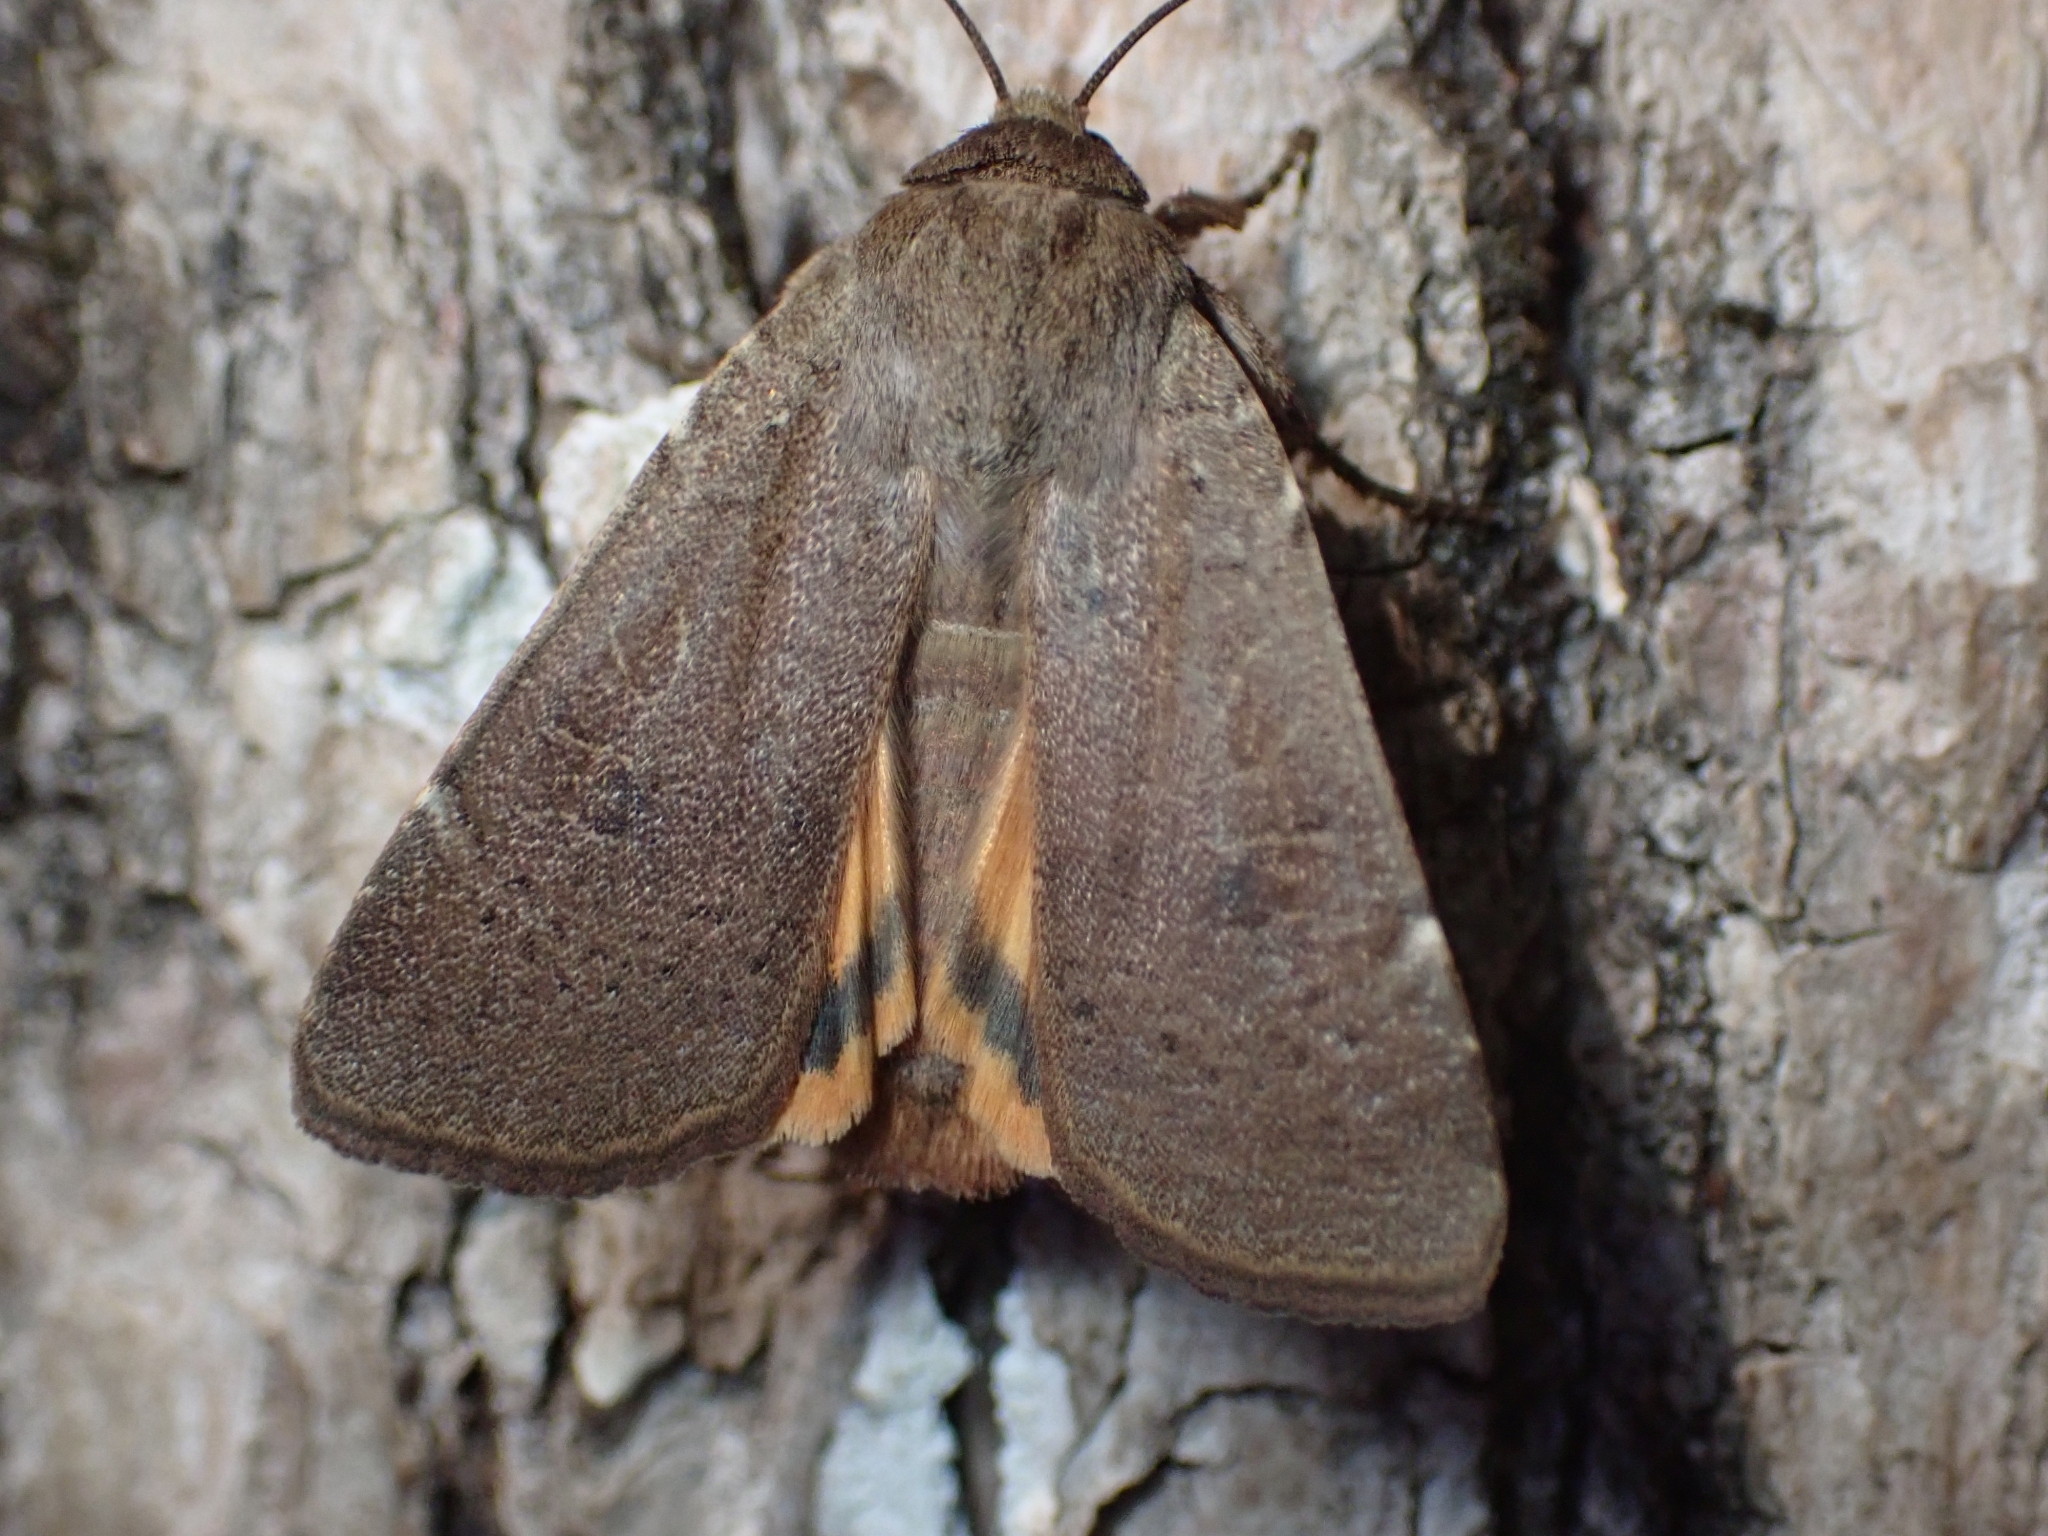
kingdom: Animalia
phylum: Arthropoda
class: Insecta
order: Lepidoptera
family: Noctuidae
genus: Noctua
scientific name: Noctua comes
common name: Lesser yellow underwing
